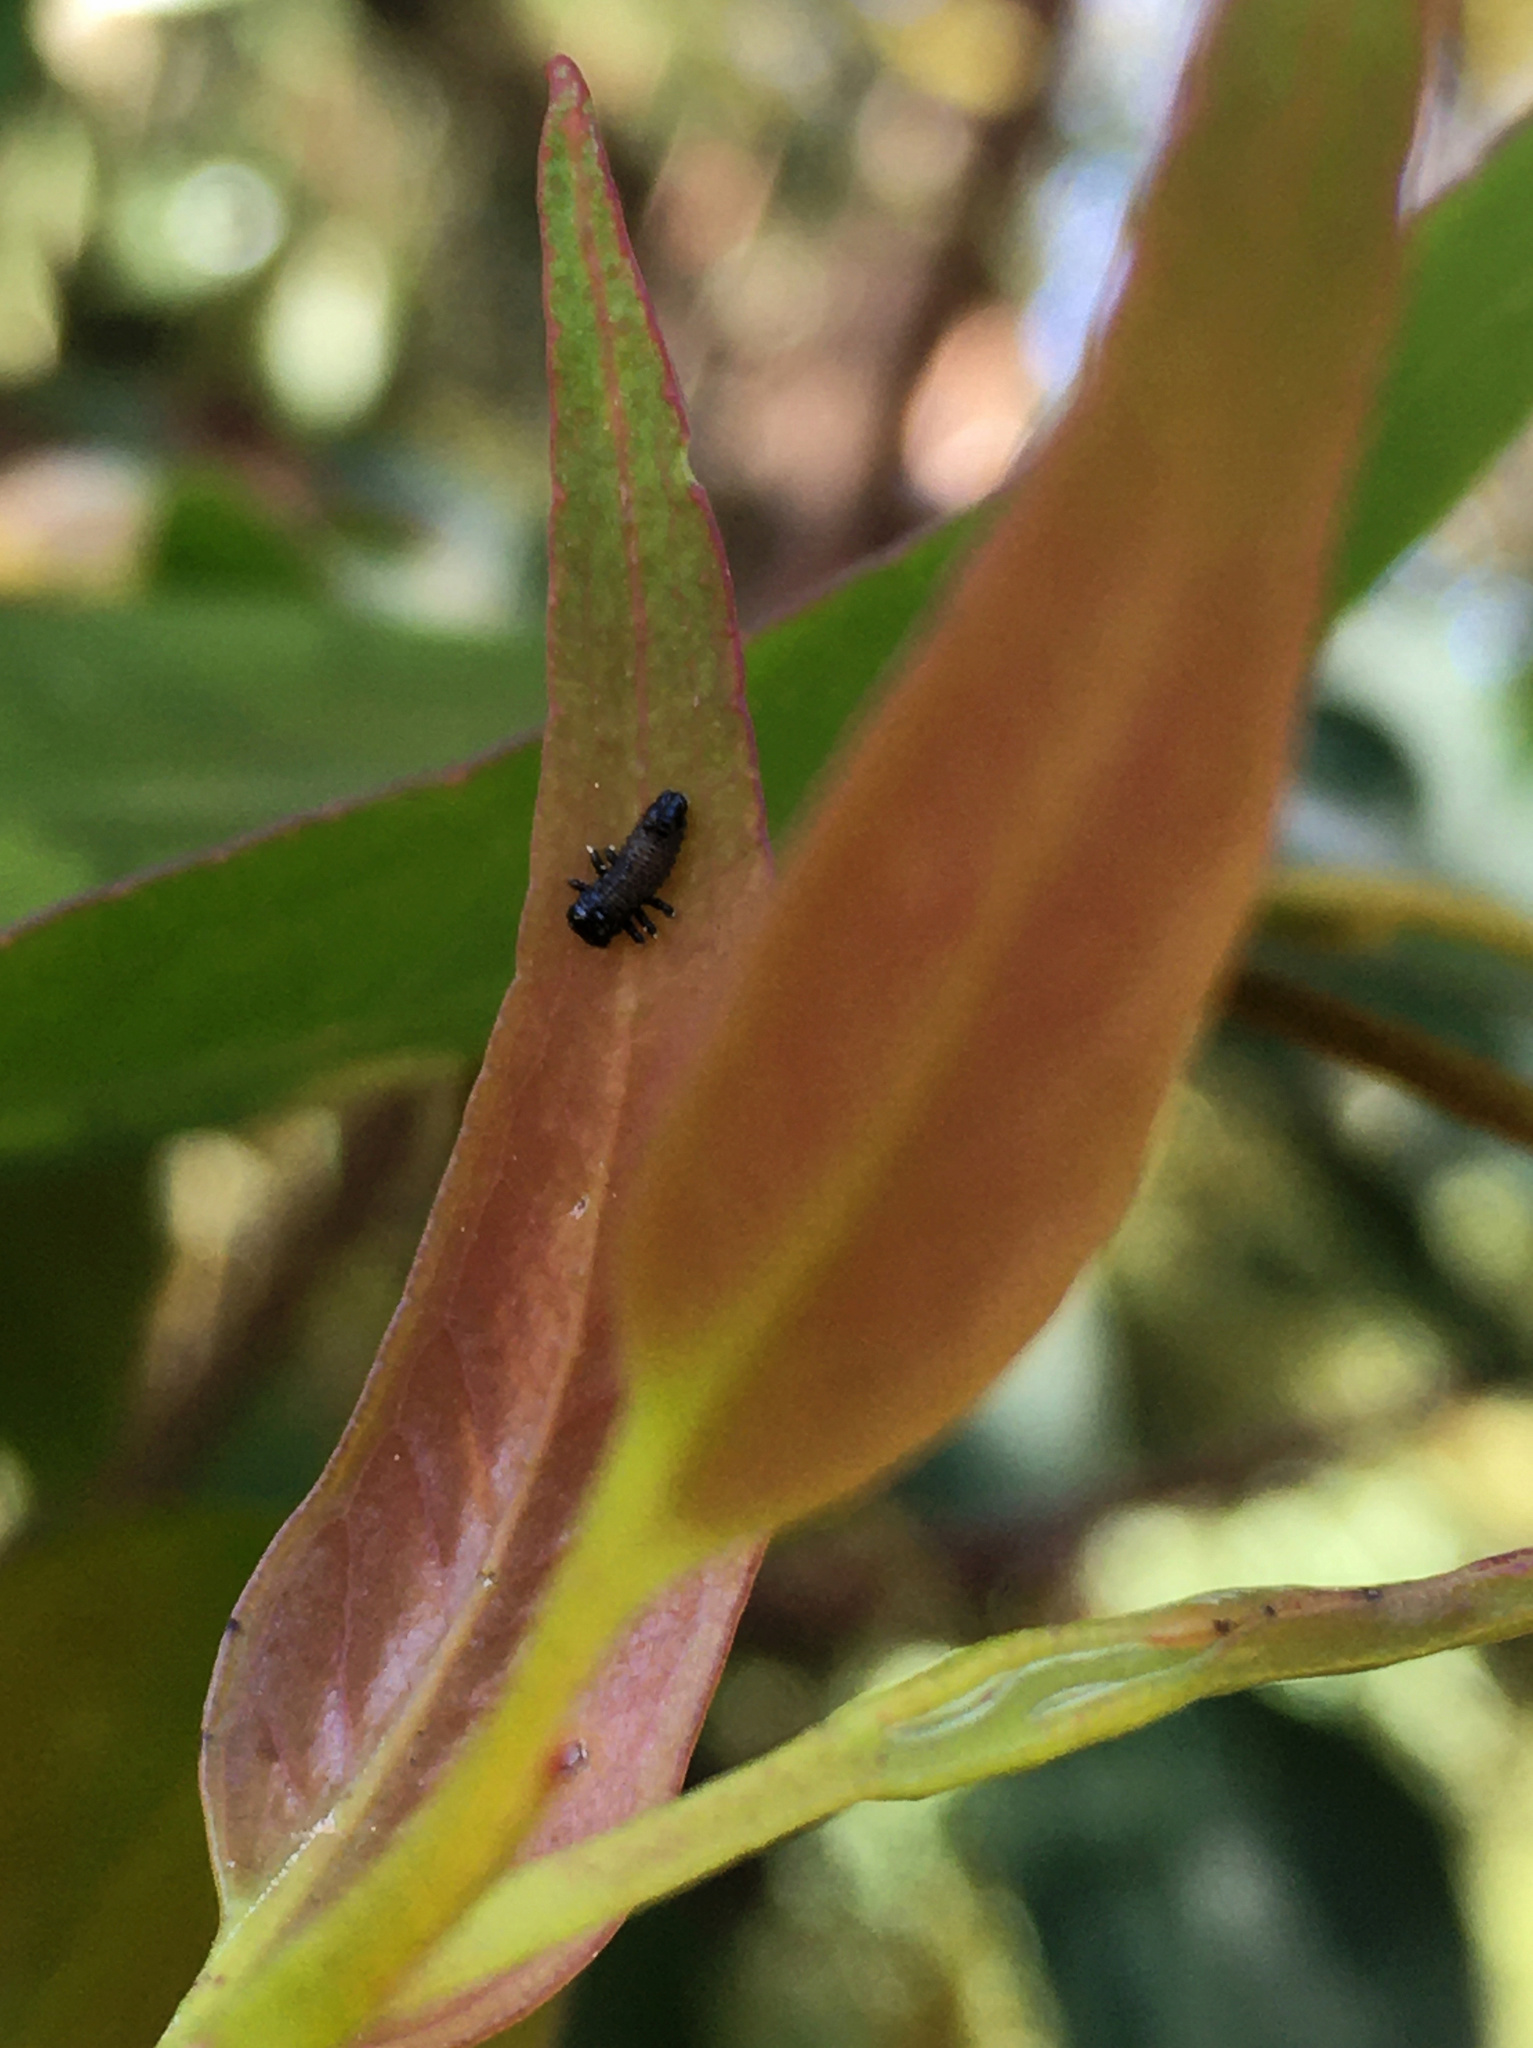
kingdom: Animalia
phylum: Arthropoda
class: Insecta
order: Coleoptera
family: Chrysomelidae
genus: Paropsis
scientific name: Paropsis charybdis
